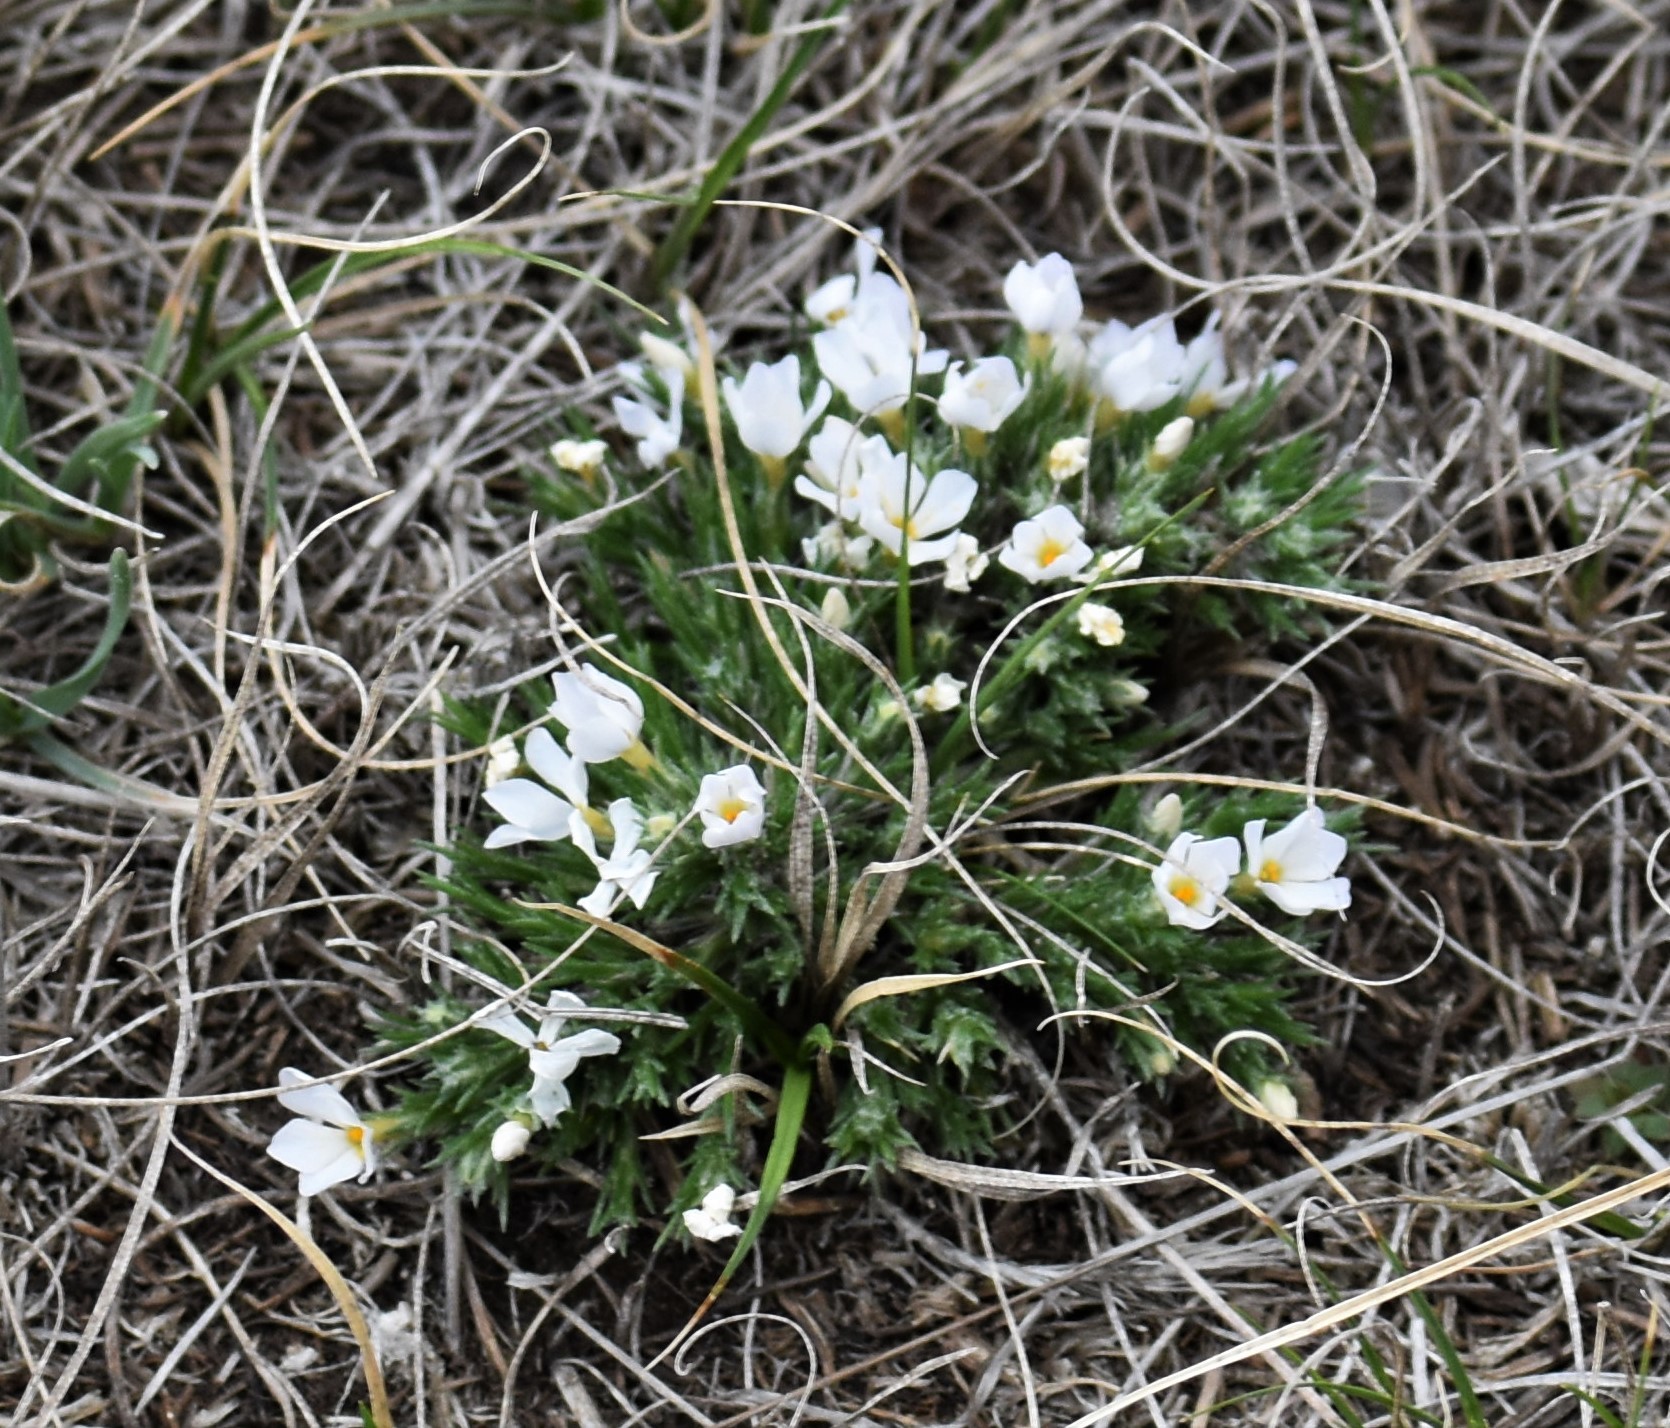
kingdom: Plantae
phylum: Tracheophyta
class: Magnoliopsida
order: Ericales
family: Polemoniaceae
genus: Phlox
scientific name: Phlox hoodii
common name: Moss phlox
